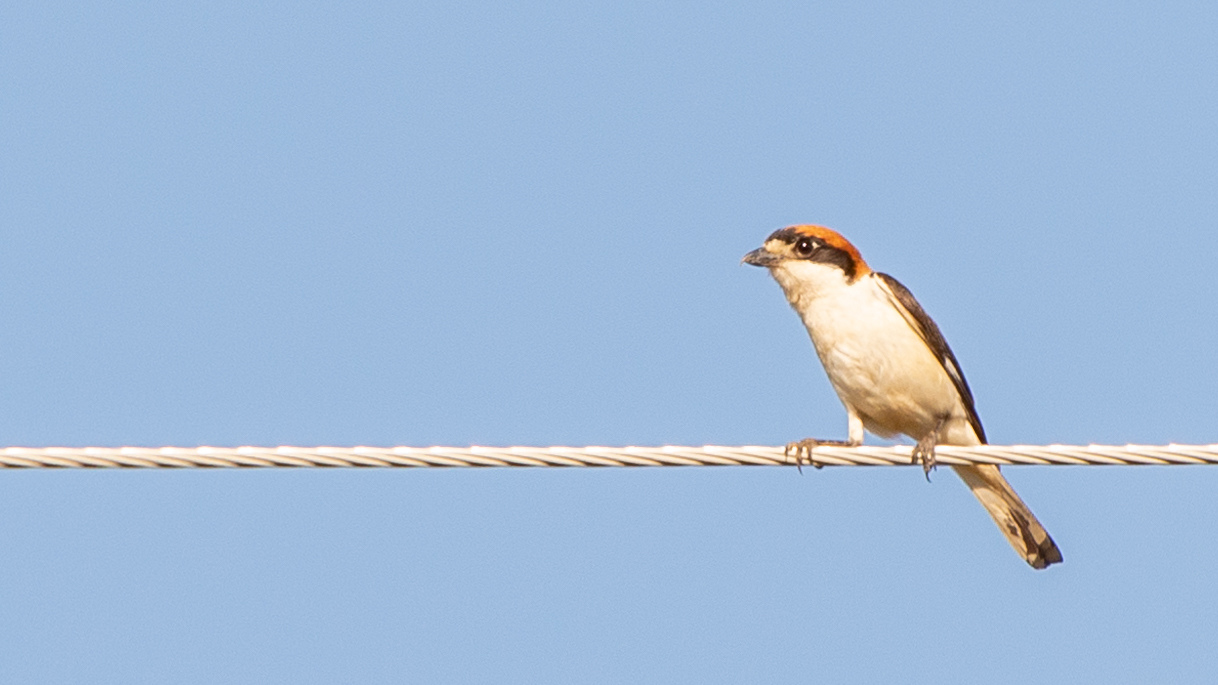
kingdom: Animalia
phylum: Chordata
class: Aves
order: Passeriformes
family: Laniidae
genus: Lanius
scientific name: Lanius senator
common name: Woodchat shrike
